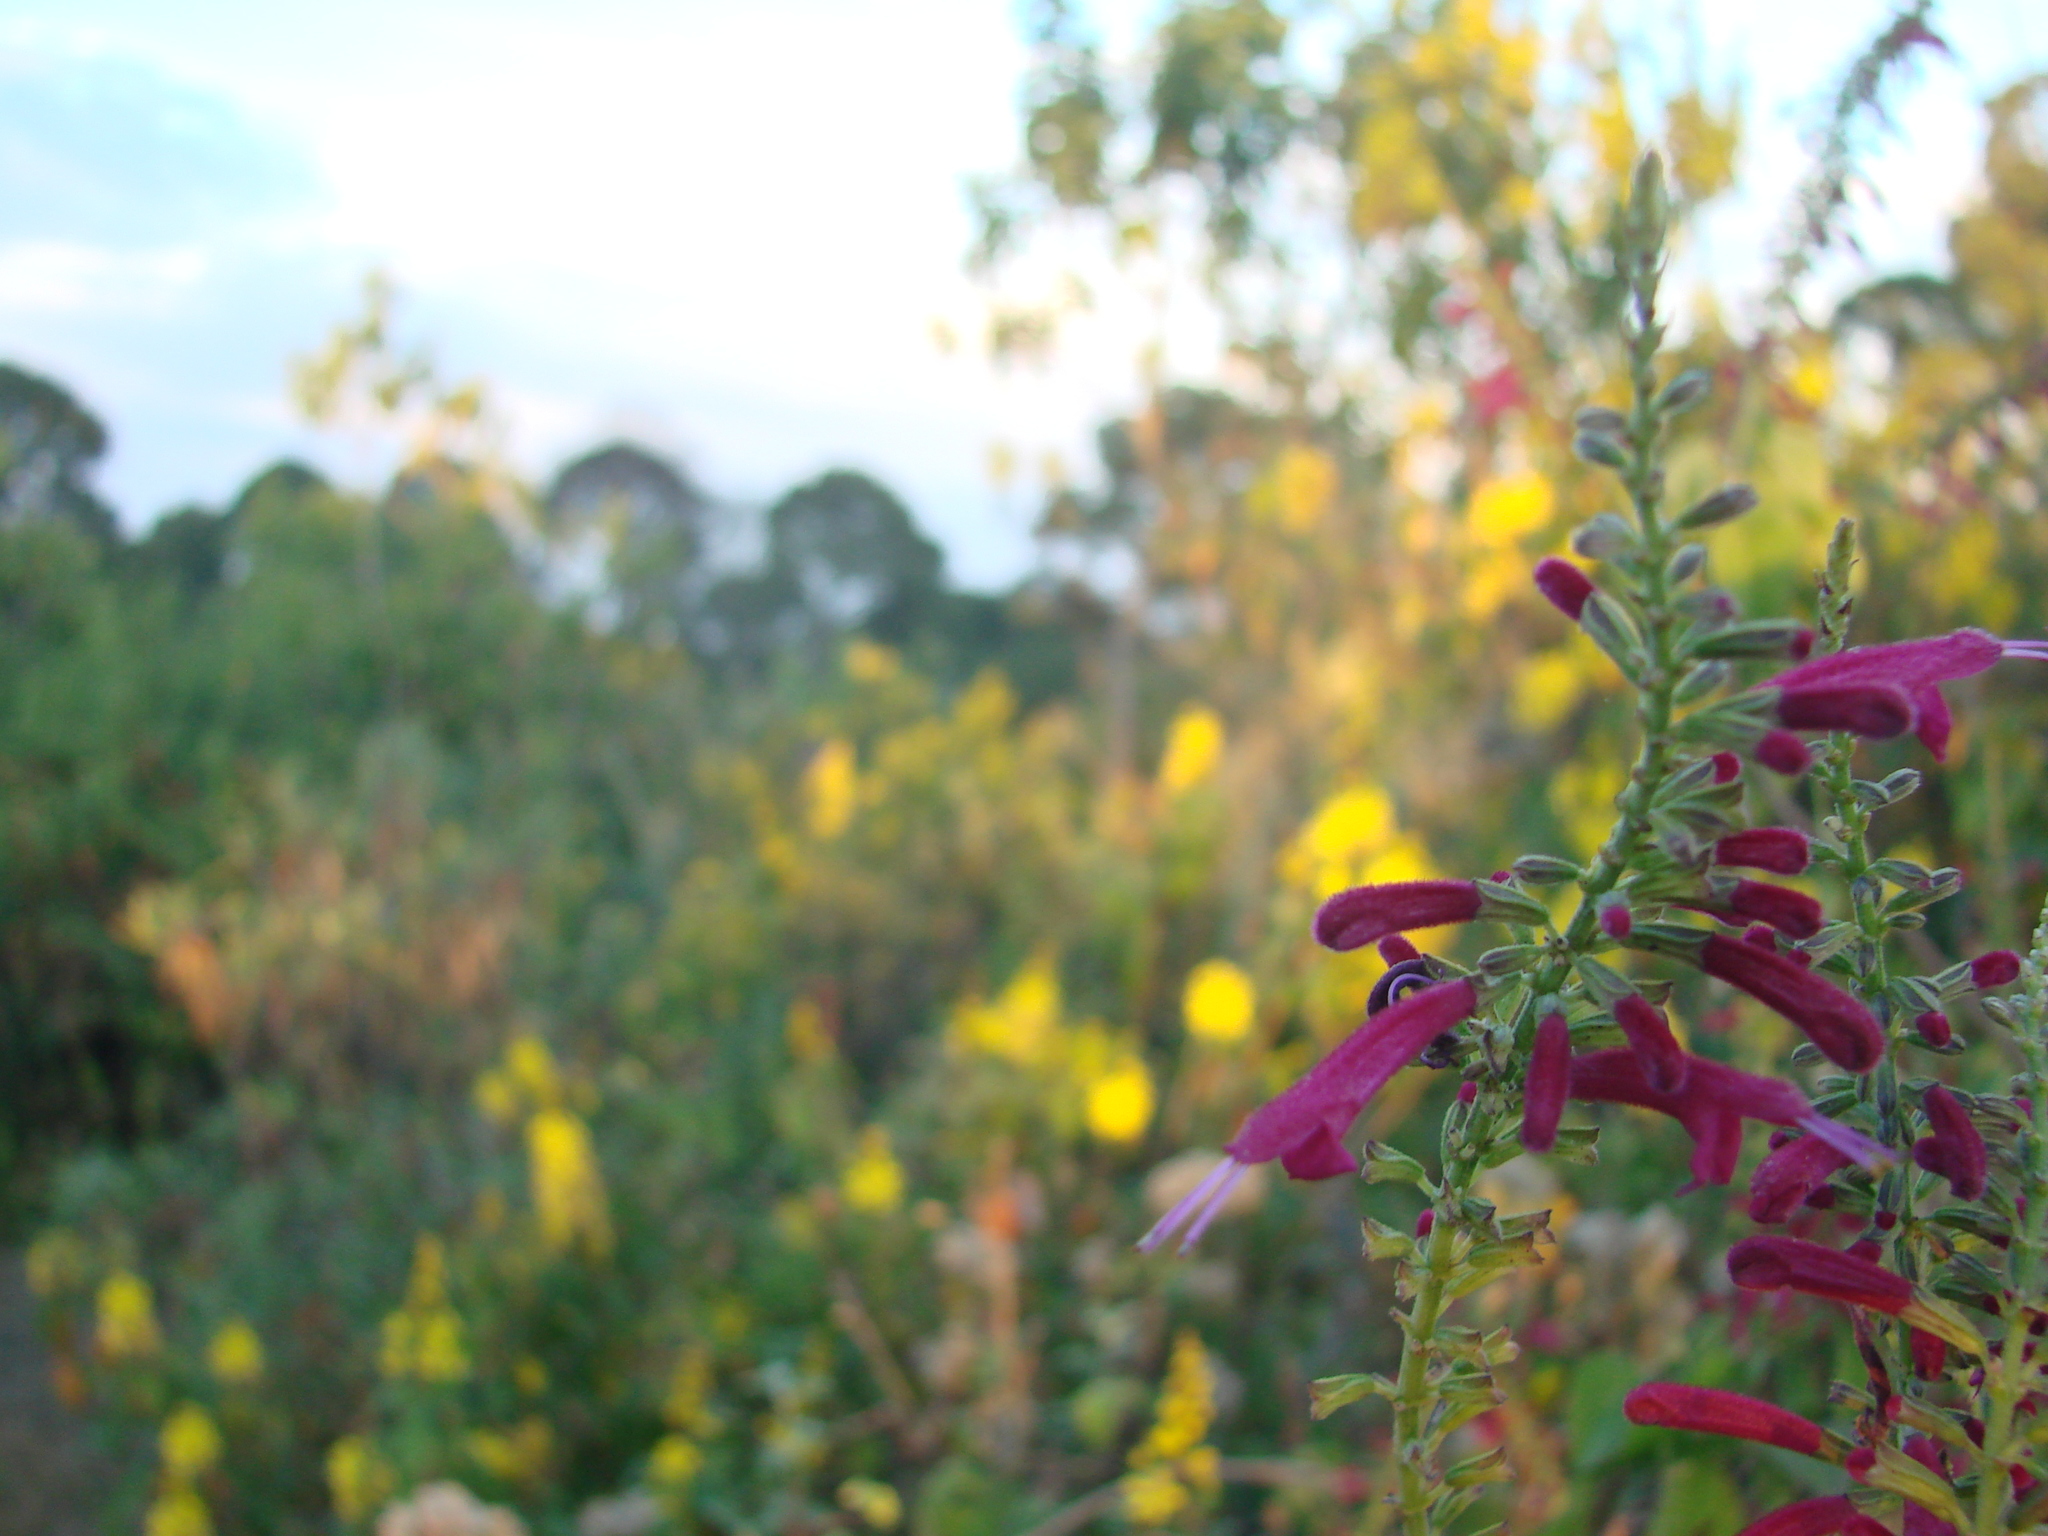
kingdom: Plantae
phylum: Tracheophyta
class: Magnoliopsida
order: Lamiales
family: Lamiaceae
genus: Salvia
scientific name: Salvia iodantha
